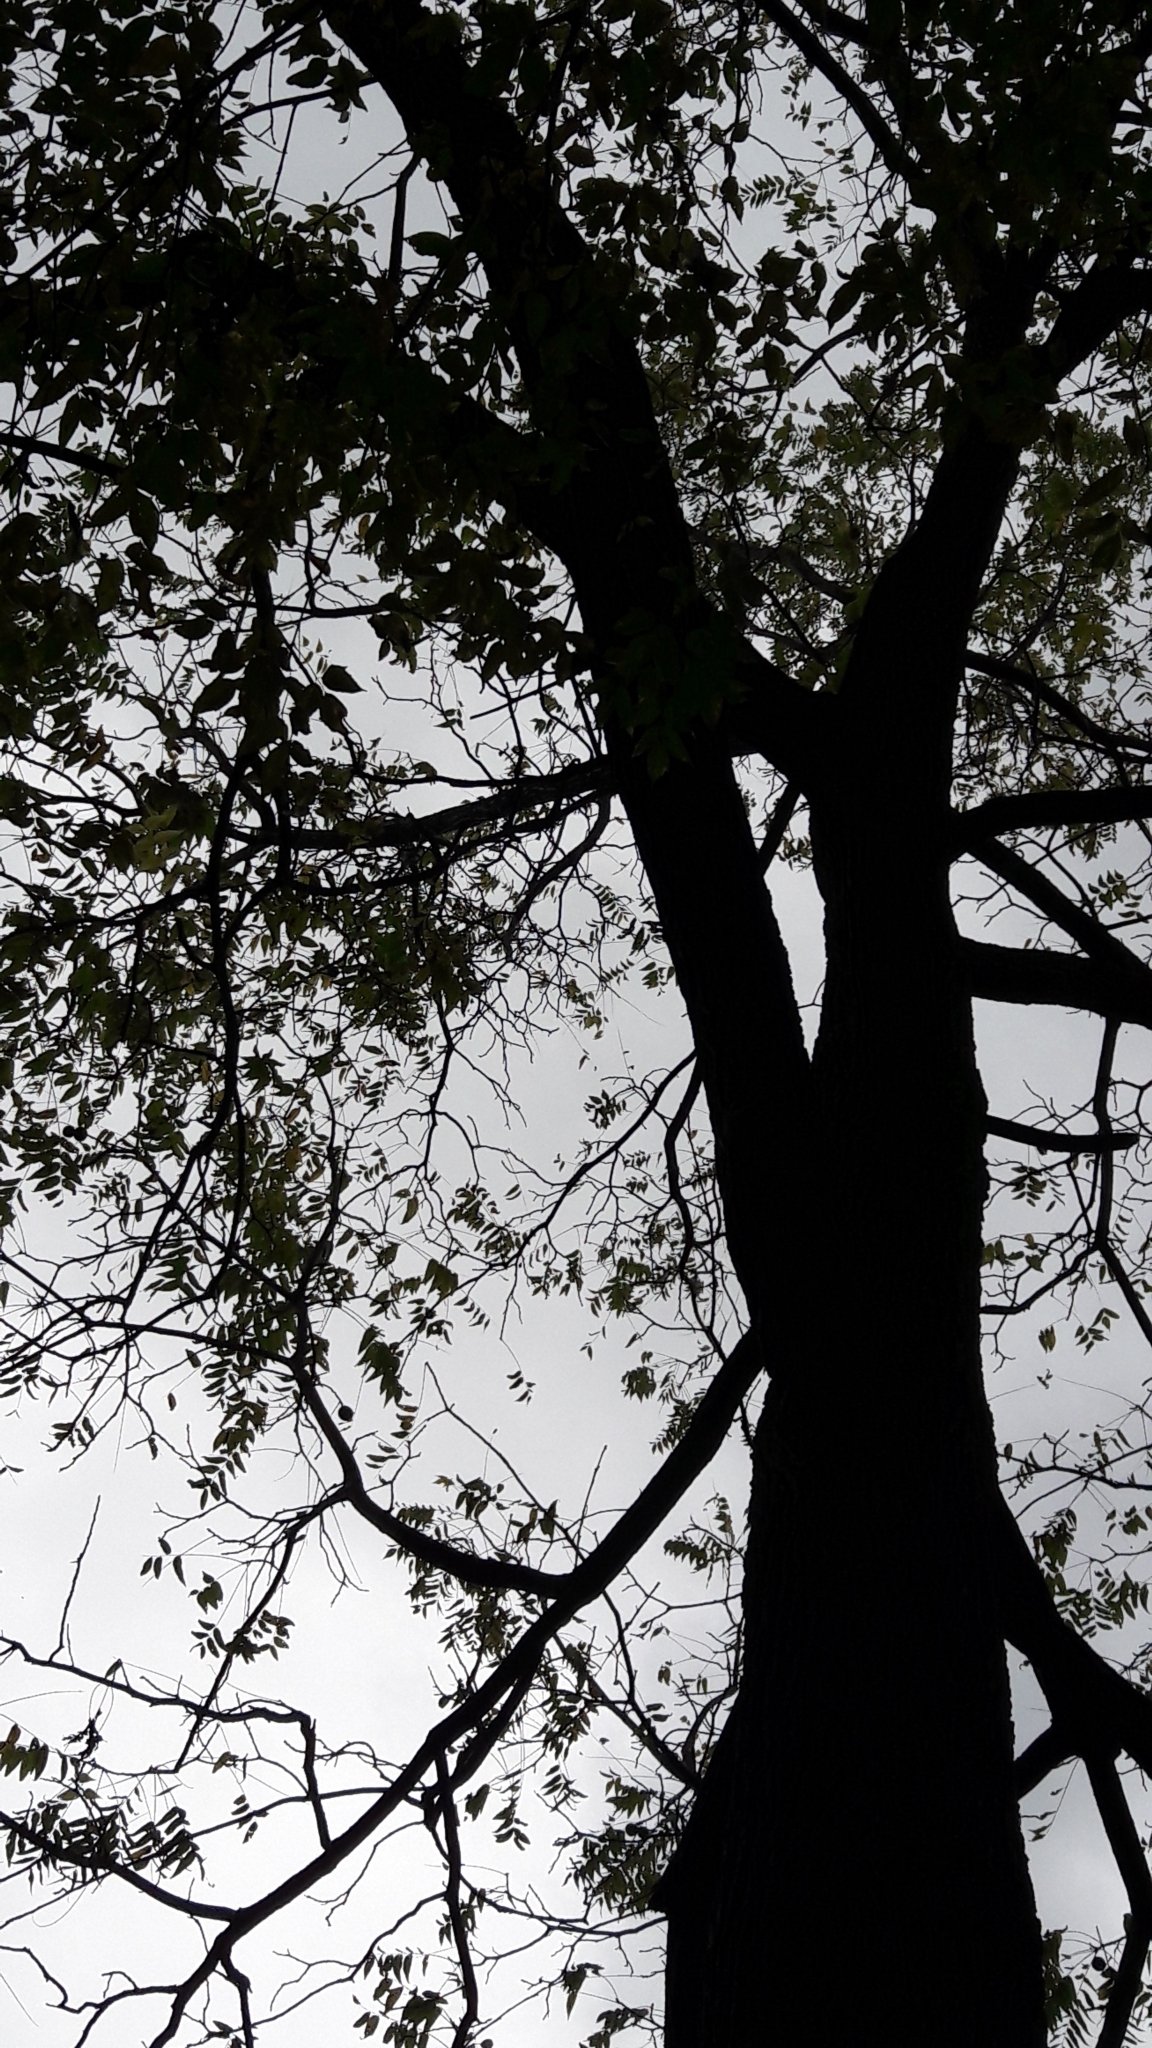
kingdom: Plantae
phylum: Tracheophyta
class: Magnoliopsida
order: Fagales
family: Juglandaceae
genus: Juglans
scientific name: Juglans nigra
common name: Black walnut
